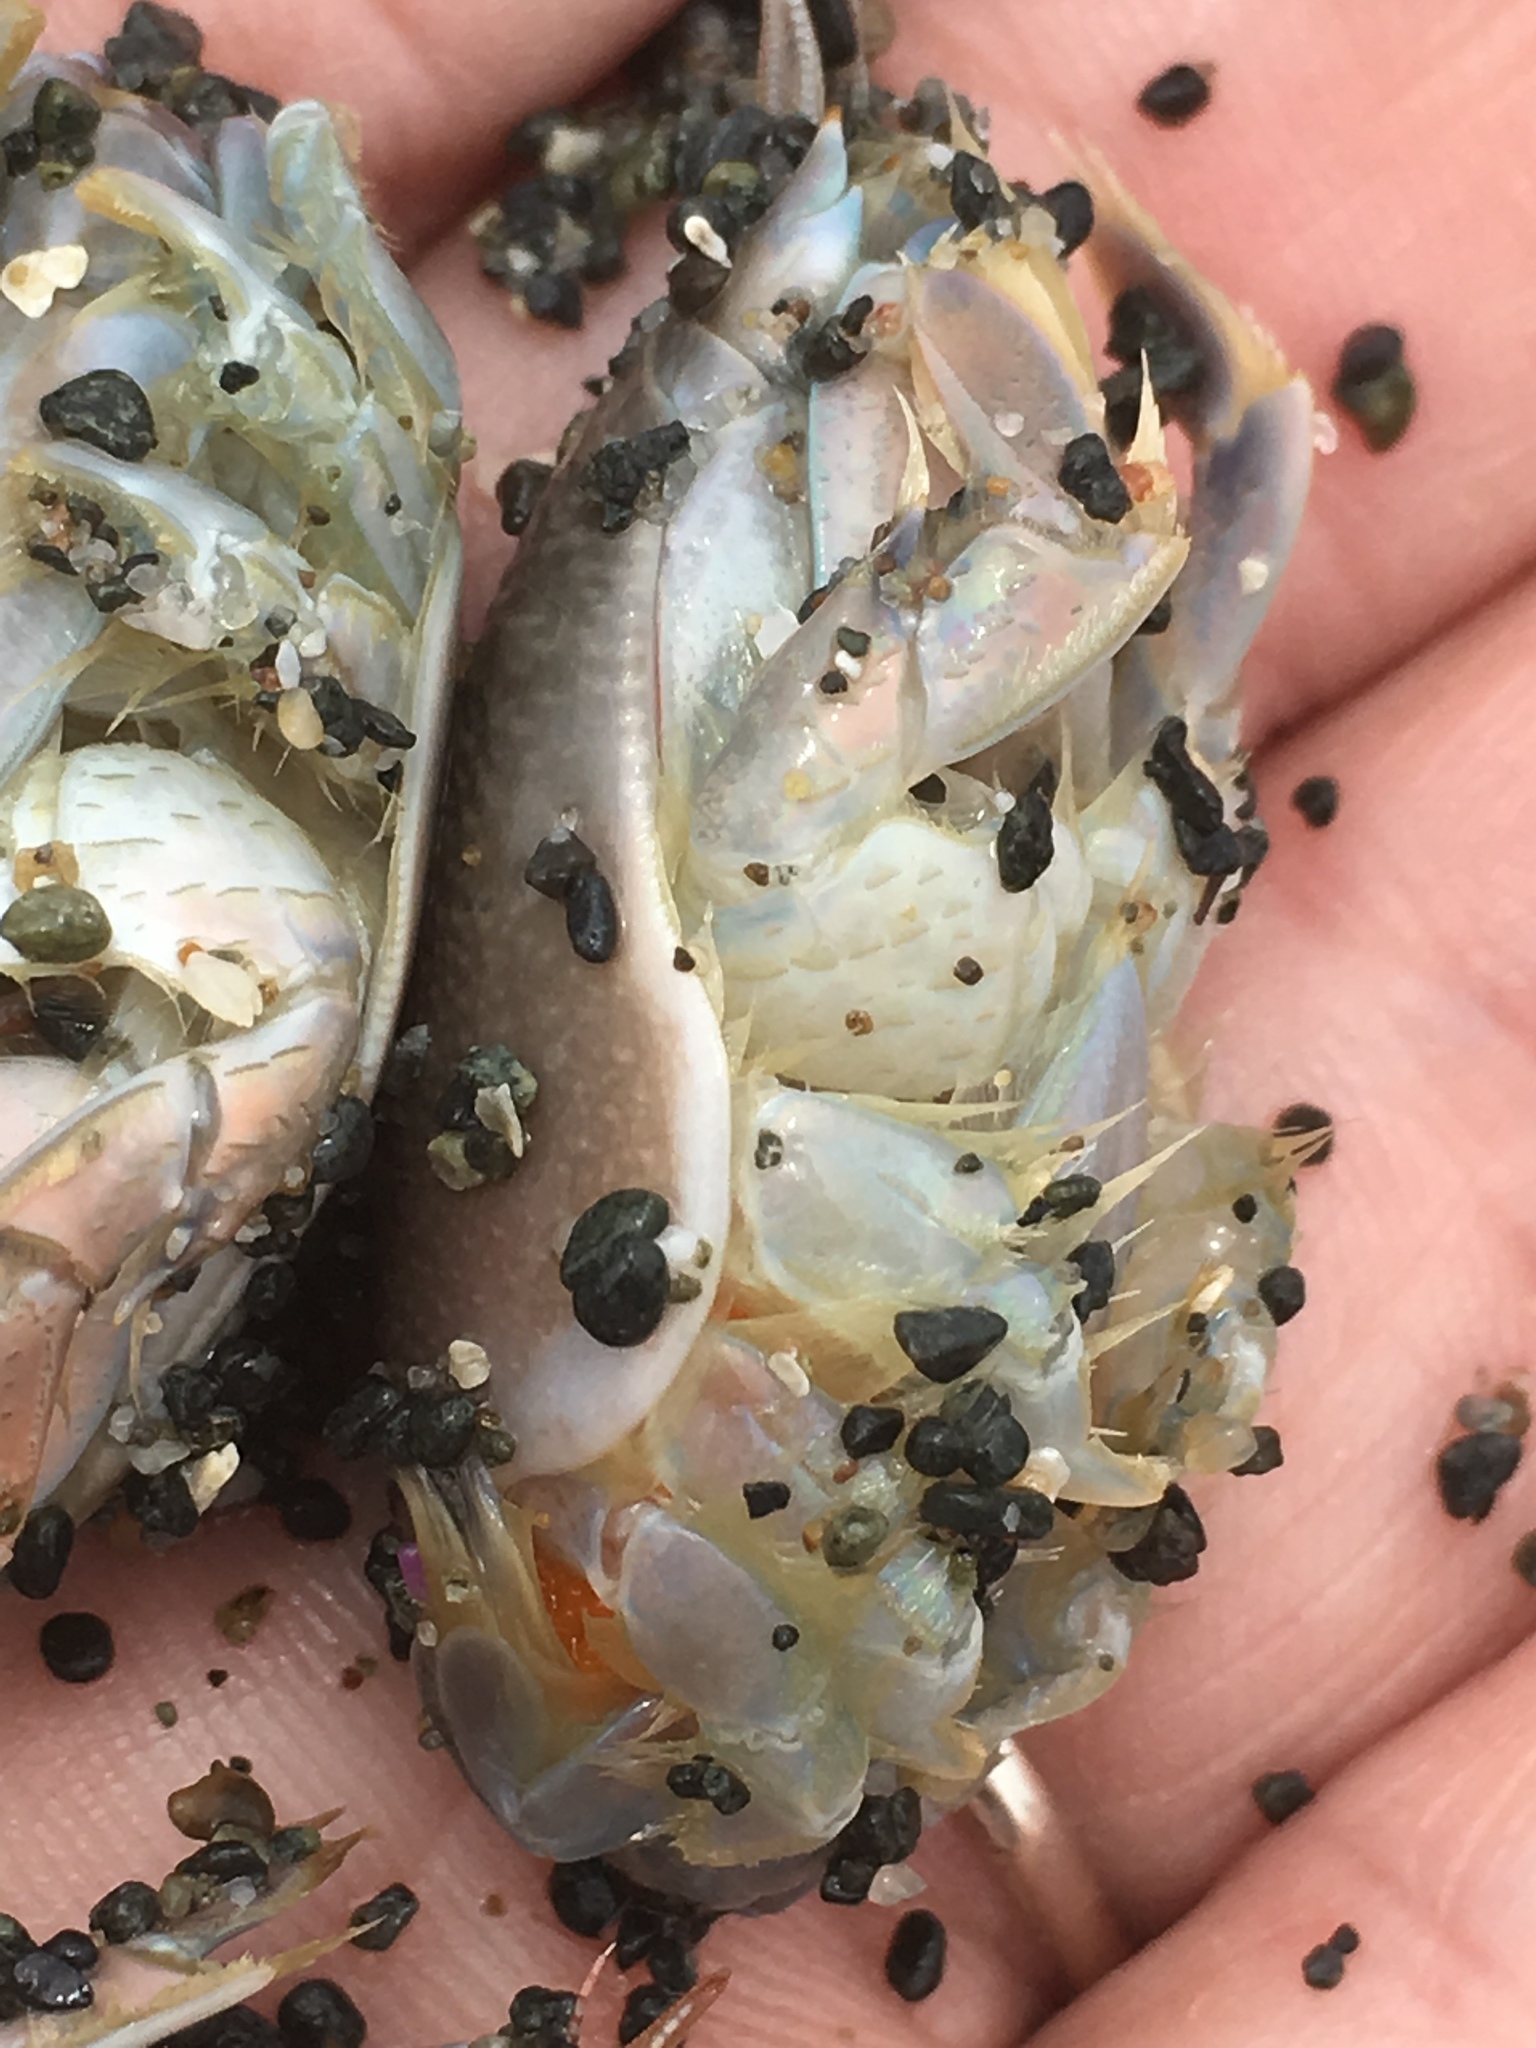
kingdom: Animalia
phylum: Arthropoda
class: Malacostraca
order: Decapoda
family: Hippidae
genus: Emerita
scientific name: Emerita analoga
